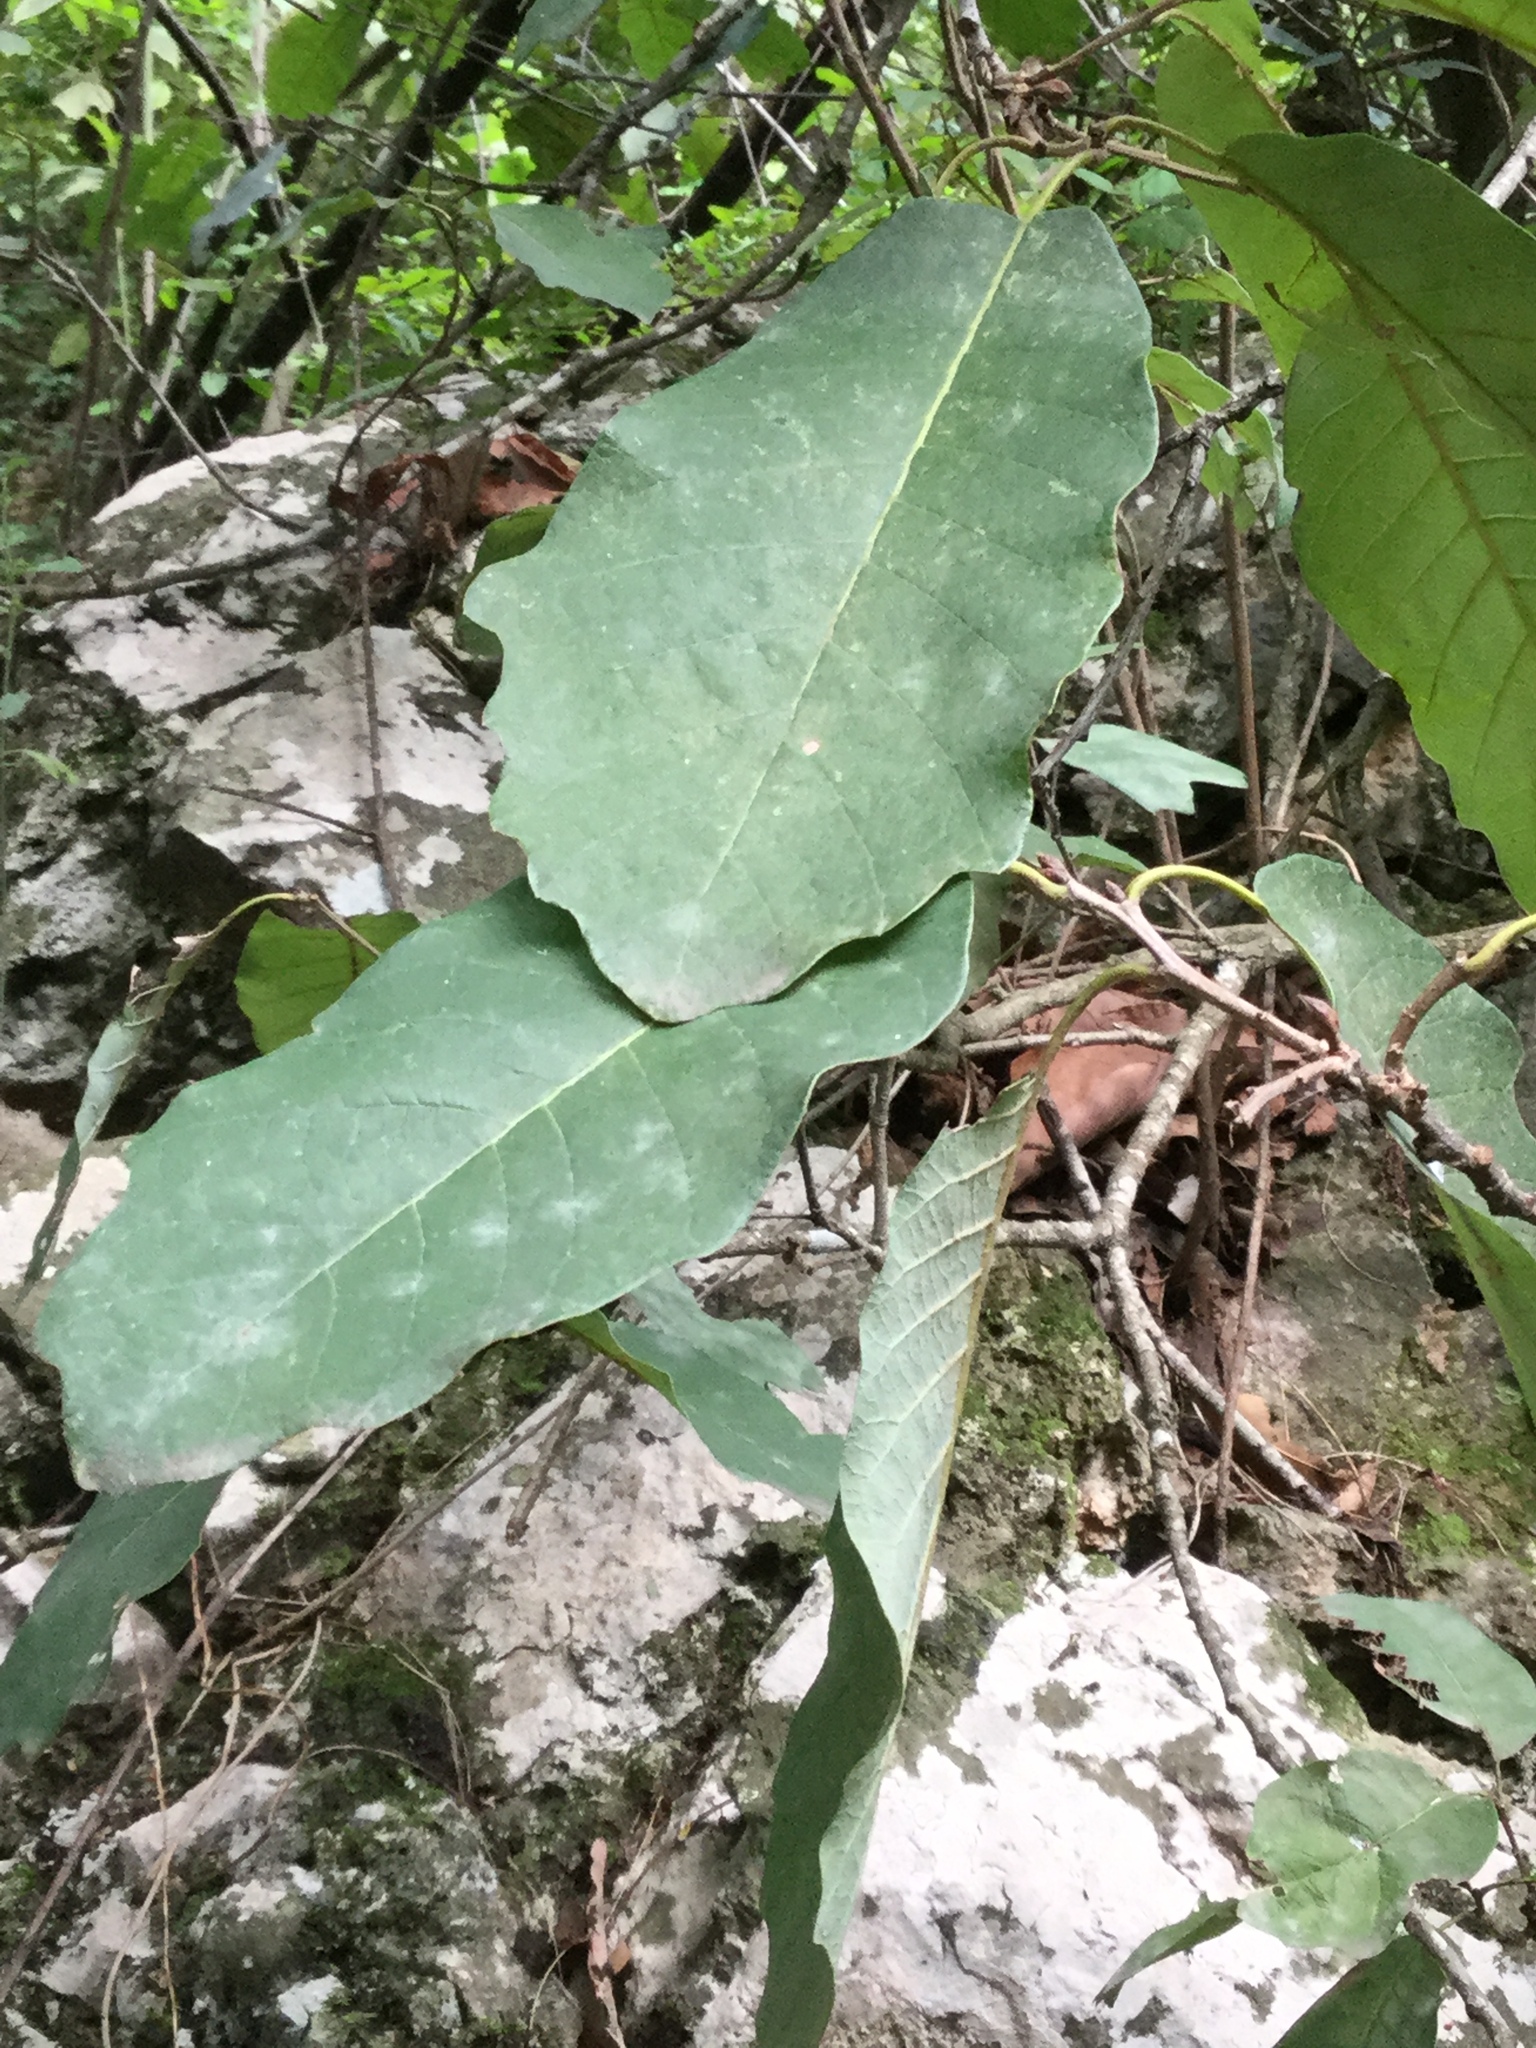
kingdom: Plantae
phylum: Tracheophyta
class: Magnoliopsida
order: Fagales
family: Fagaceae
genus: Quercus
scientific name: Quercus polymorpha
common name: Mexican white oak
